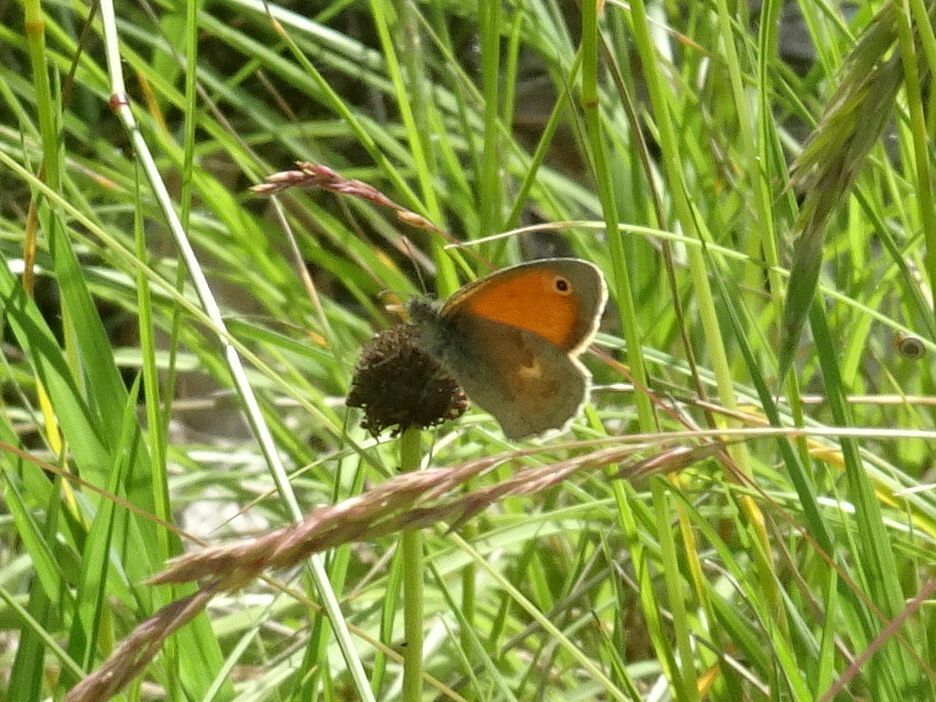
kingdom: Animalia
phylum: Arthropoda
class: Insecta
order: Lepidoptera
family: Nymphalidae
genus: Coenonympha
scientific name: Coenonympha pamphilus
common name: Small heath
